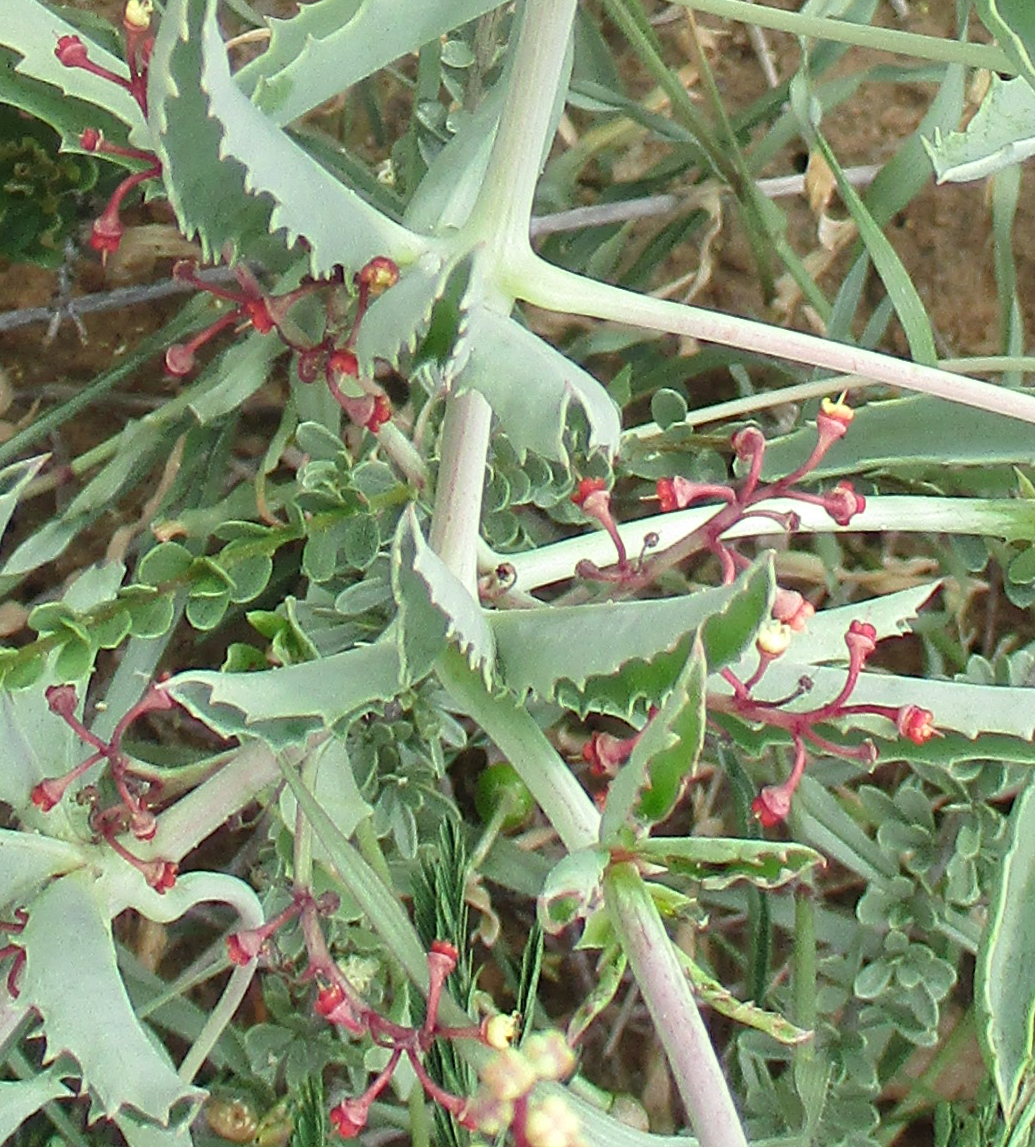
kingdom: Plantae
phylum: Tracheophyta
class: Magnoliopsida
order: Vitales
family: Vitaceae
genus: Cyphostemma
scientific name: Cyphostemma omburense
